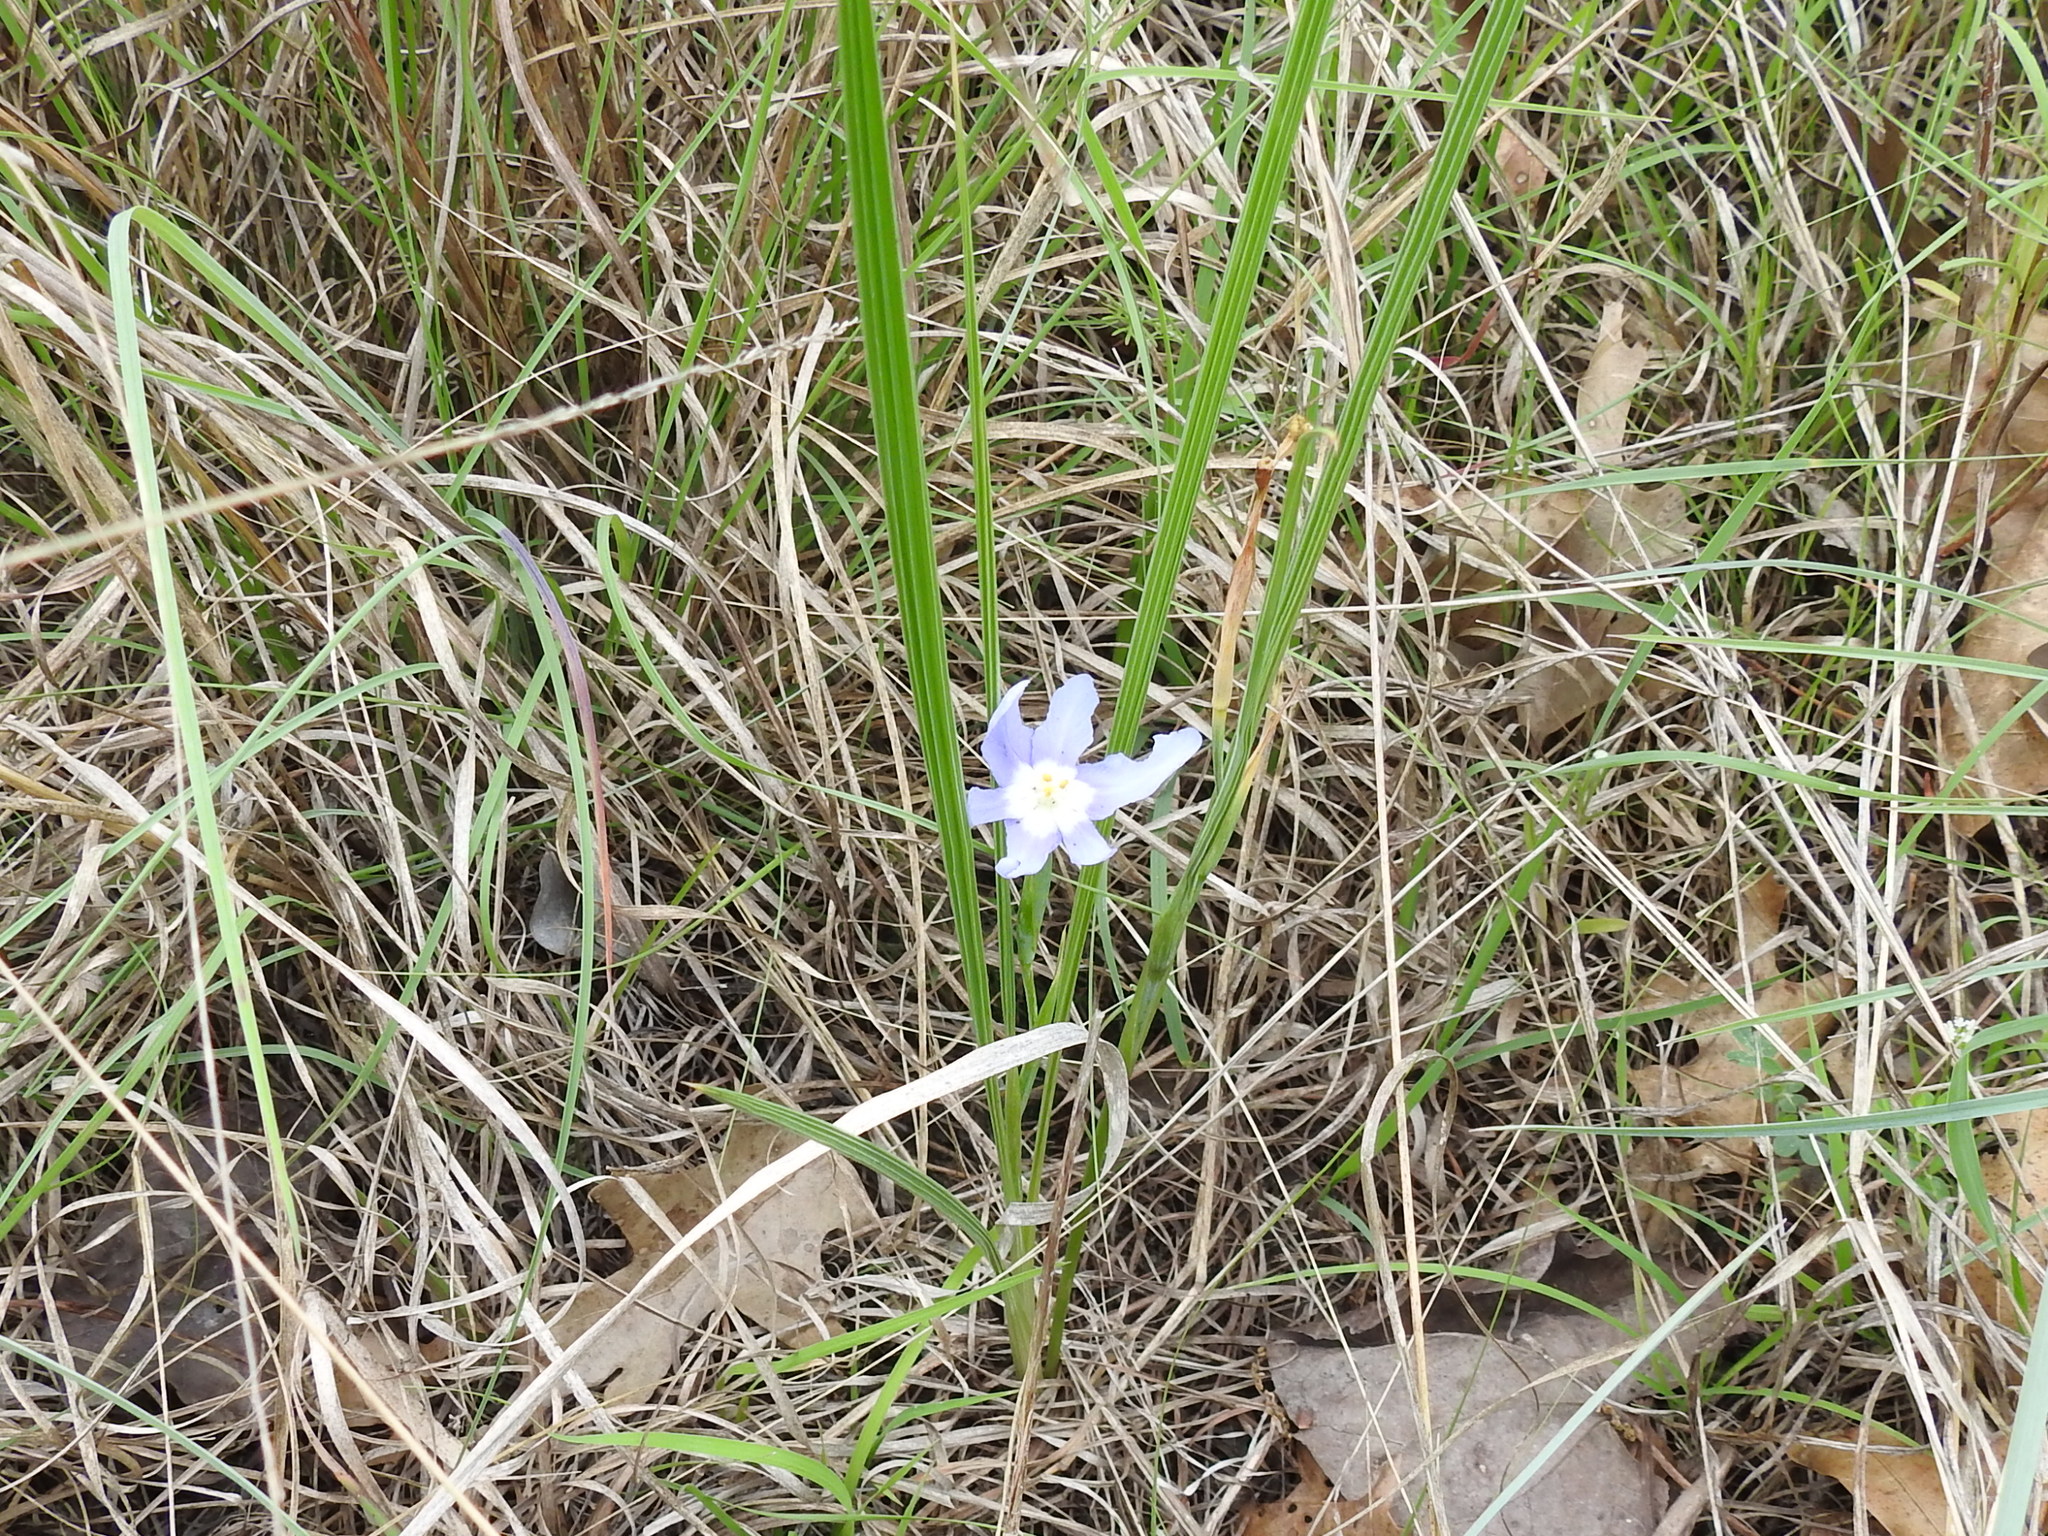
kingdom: Plantae
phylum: Tracheophyta
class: Liliopsida
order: Asparagales
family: Iridaceae
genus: Nemastylis
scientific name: Nemastylis geminiflora
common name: Prairie celestial
